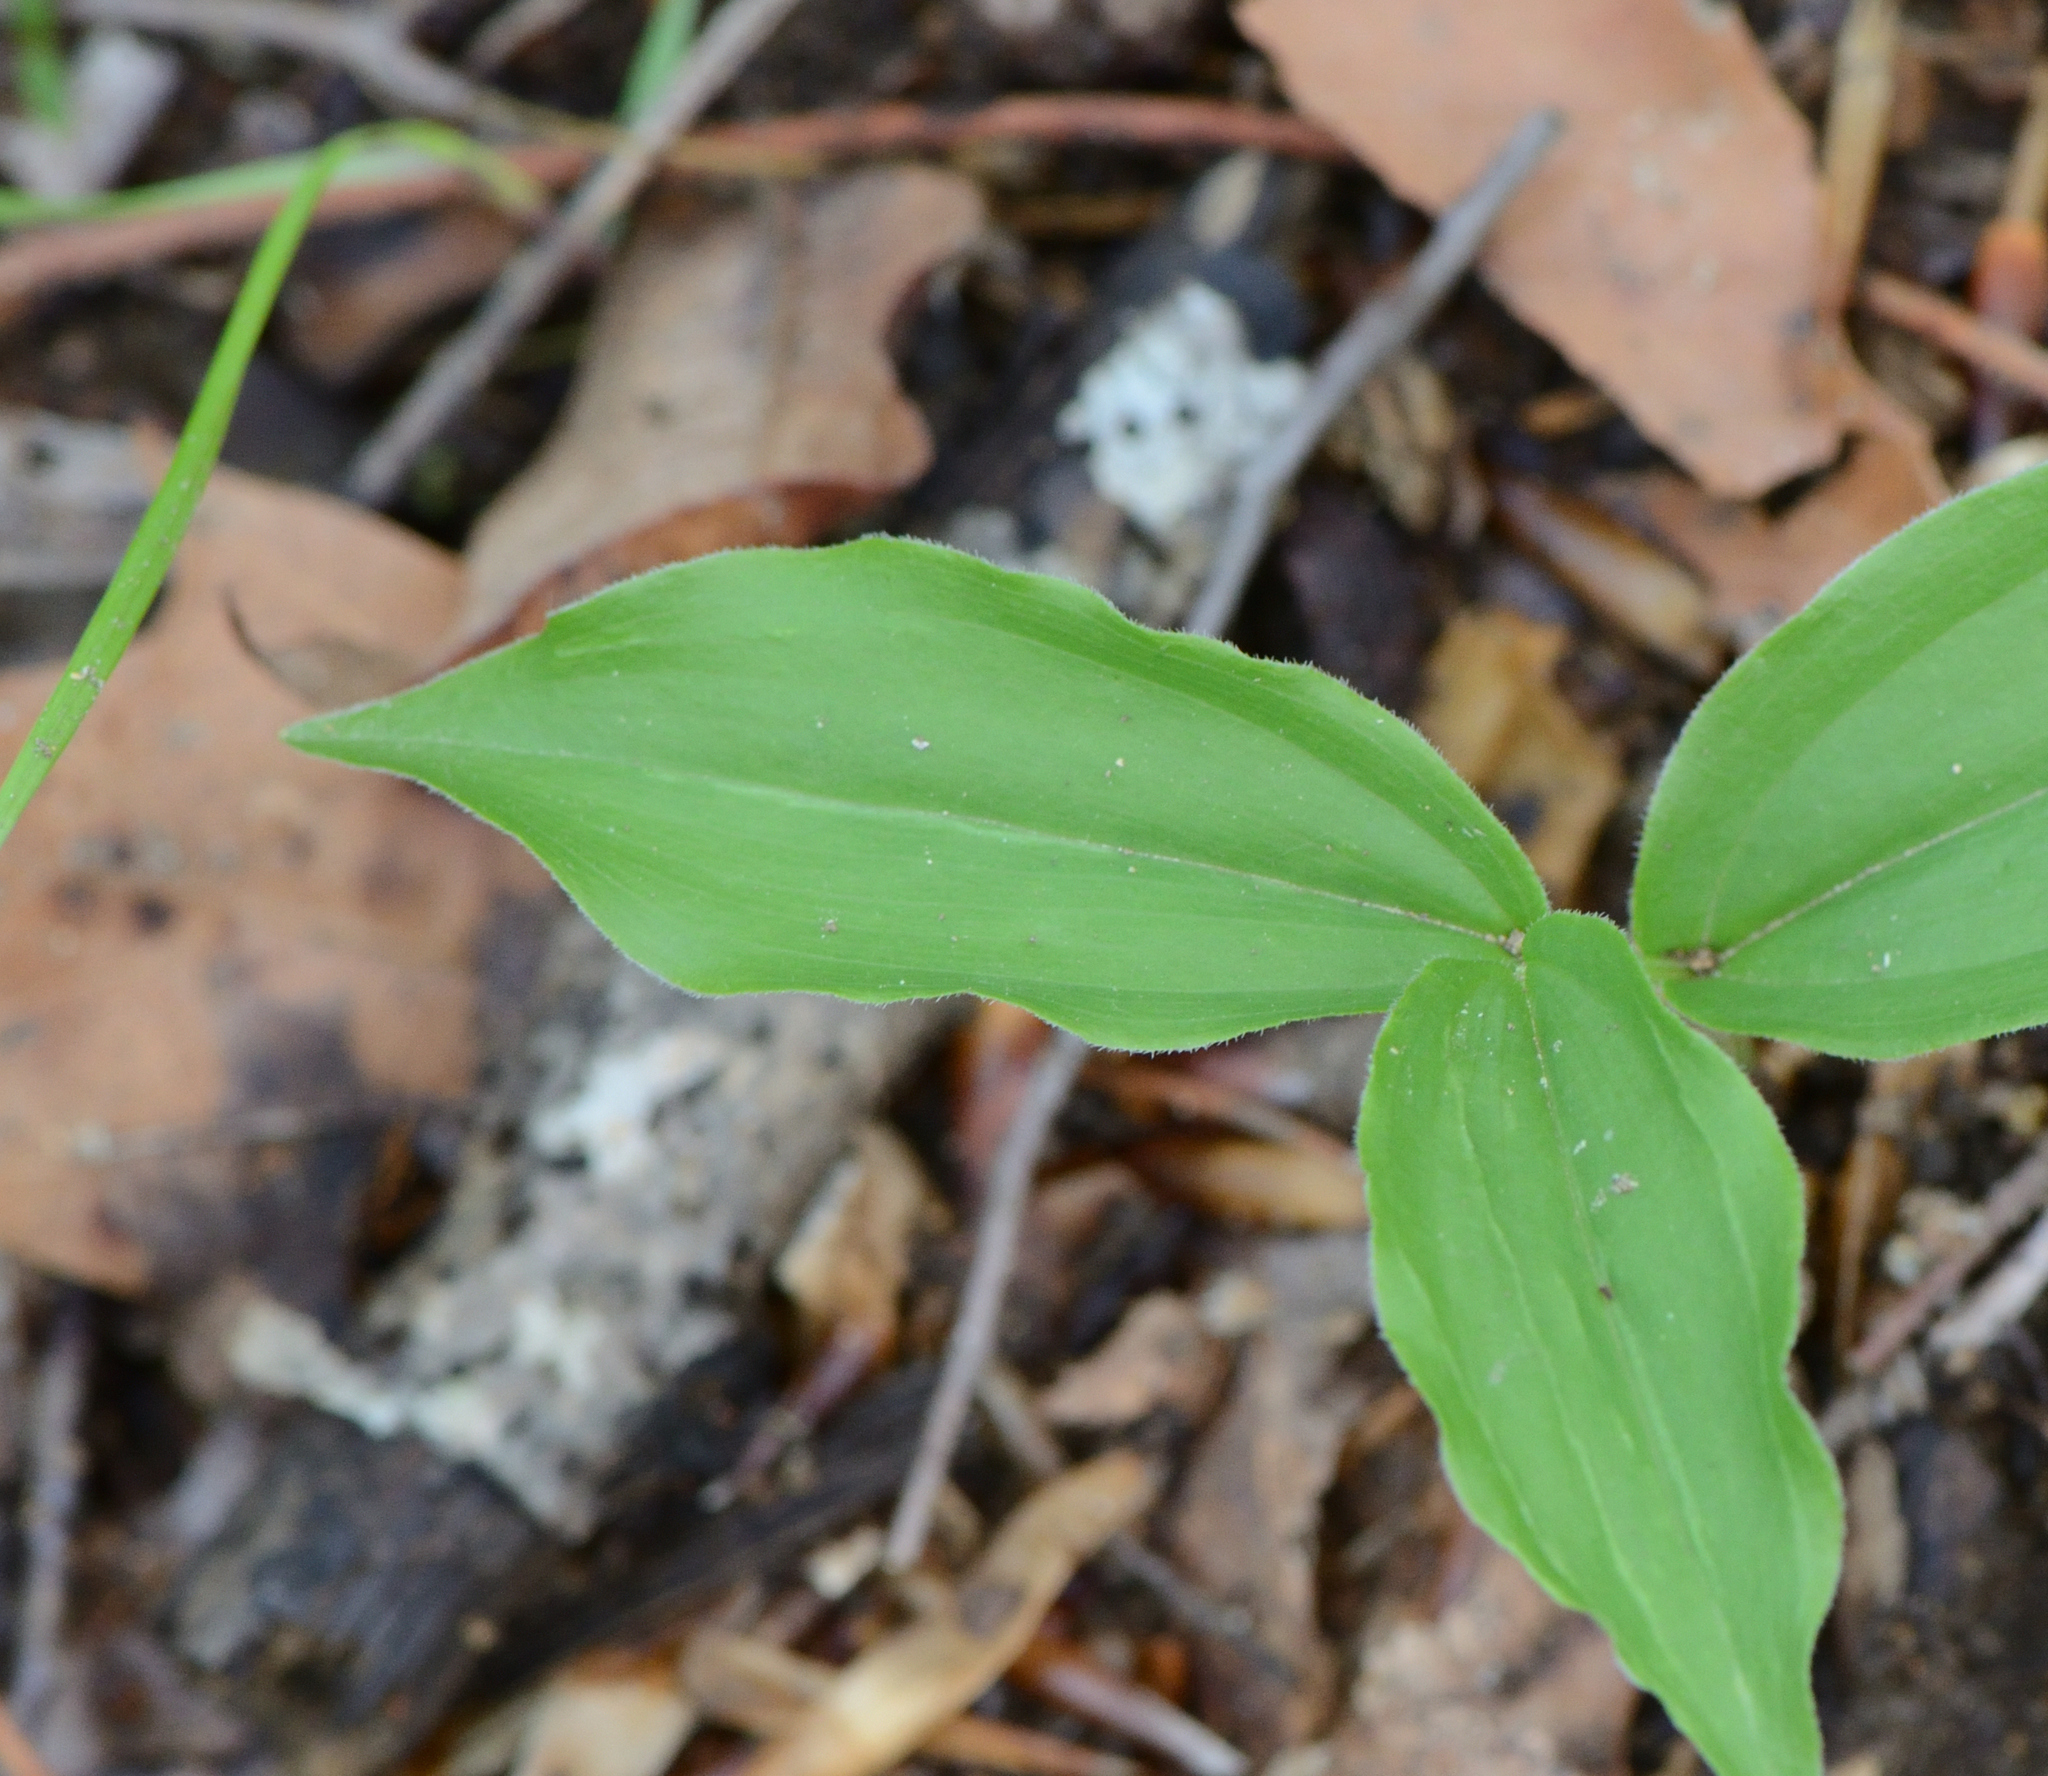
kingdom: Plantae
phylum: Tracheophyta
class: Liliopsida
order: Asparagales
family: Asparagaceae
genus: Maianthemum
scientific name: Maianthemum racemosum
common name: False spikenard
